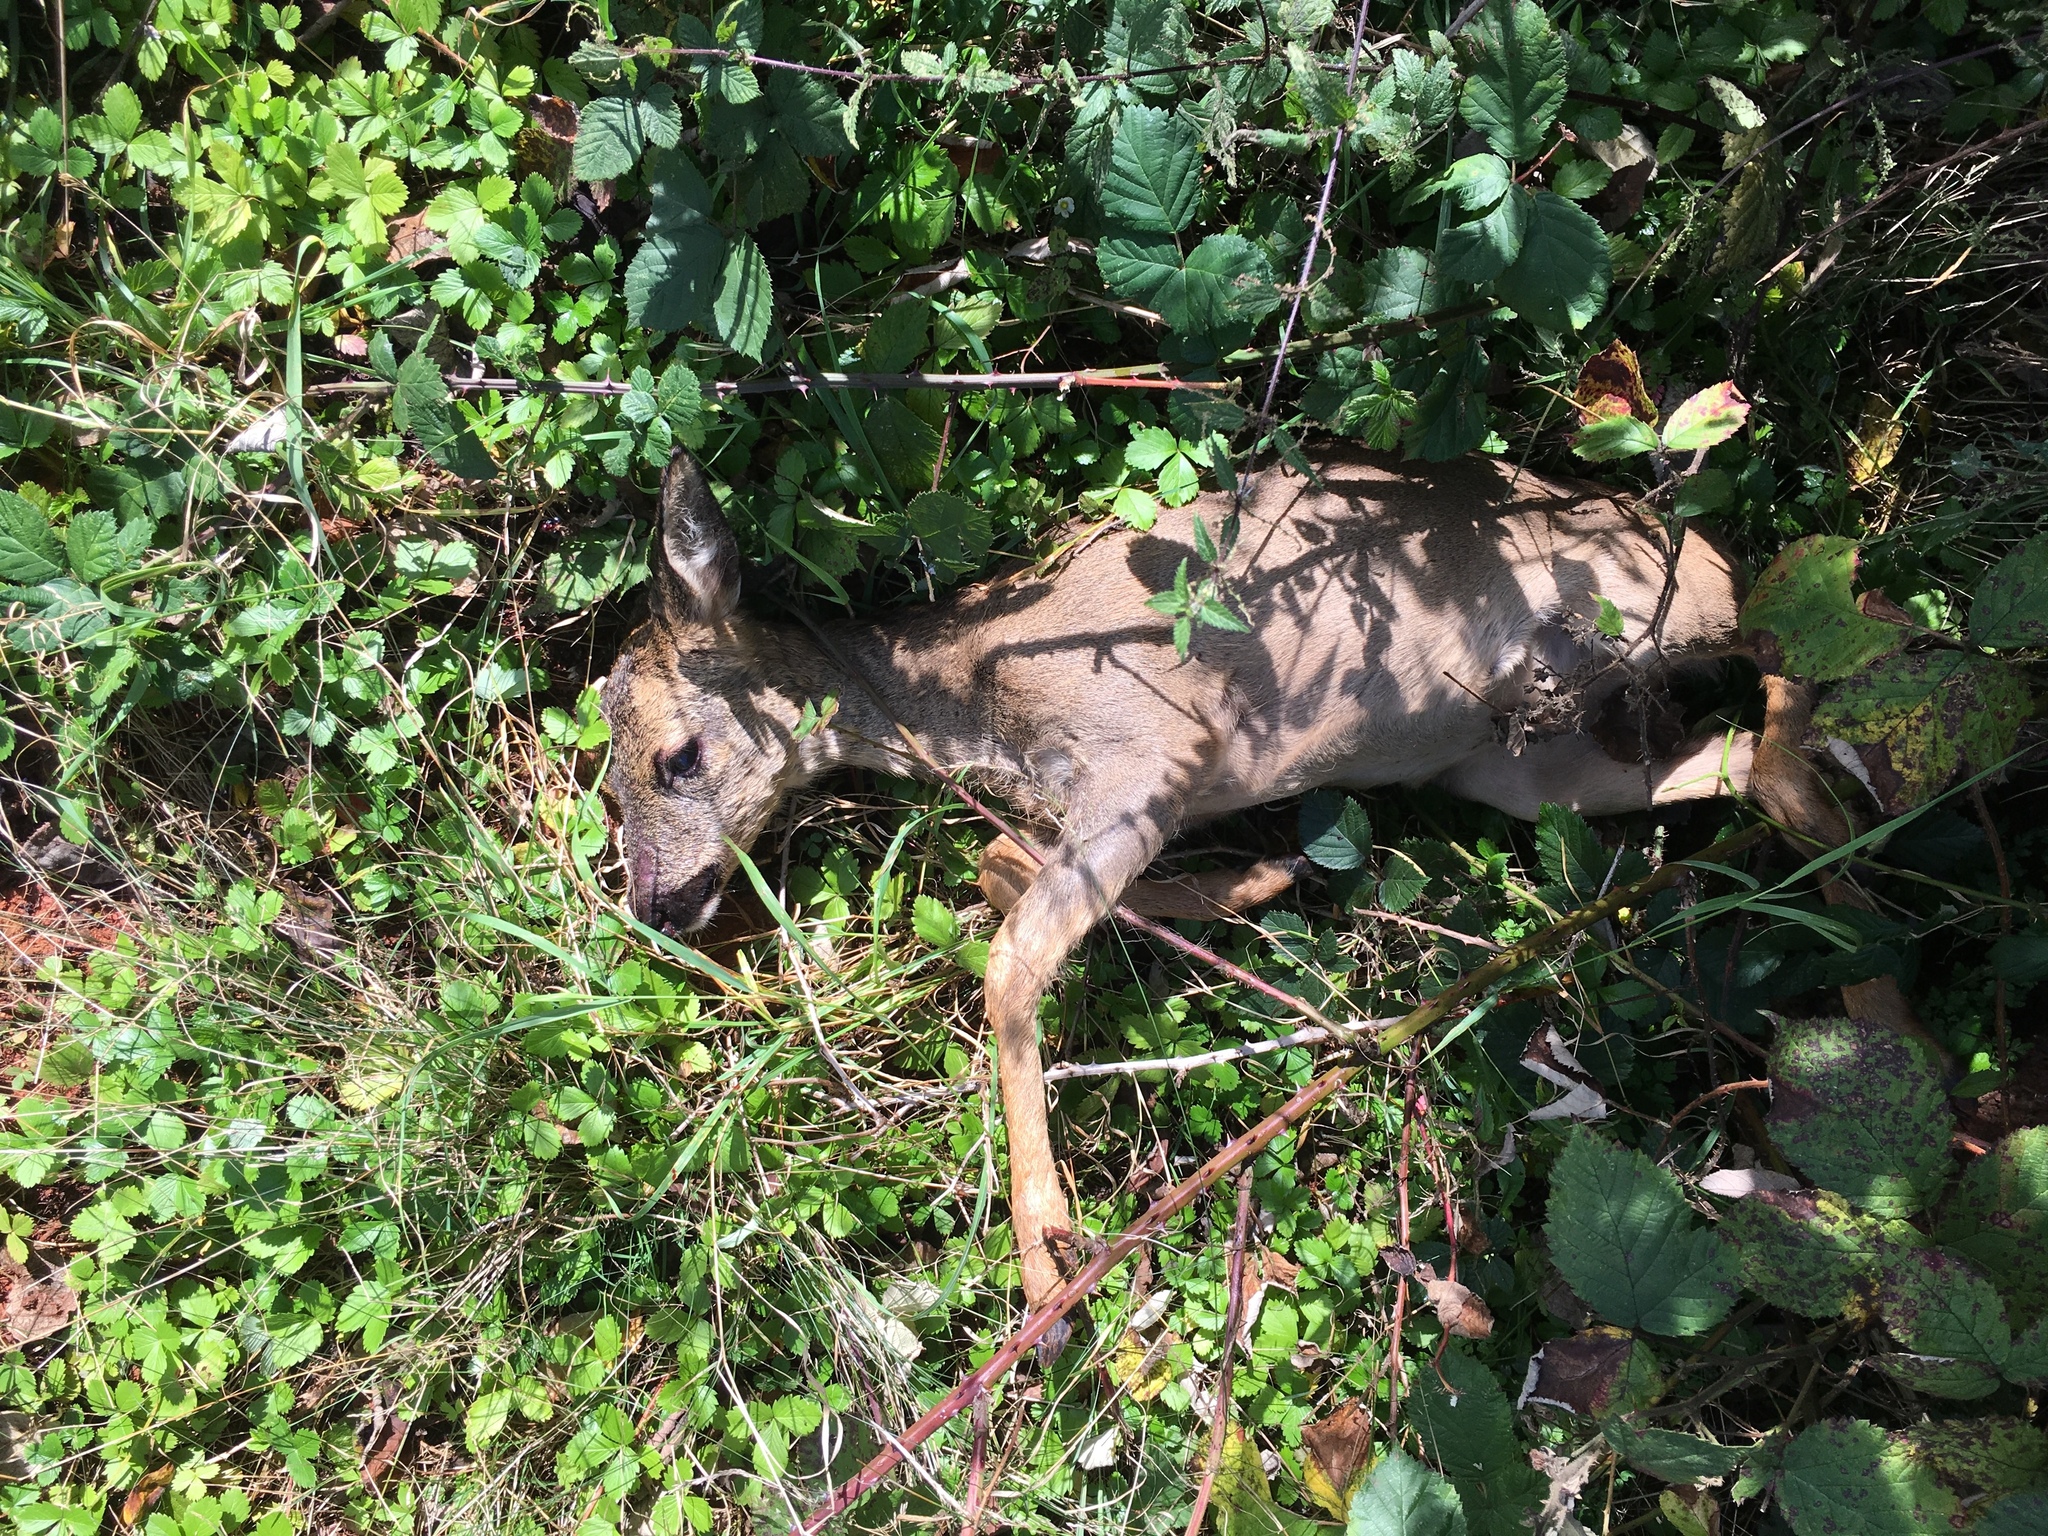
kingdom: Animalia
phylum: Chordata
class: Mammalia
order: Artiodactyla
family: Cervidae
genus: Capreolus
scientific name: Capreolus capreolus
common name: Western roe deer
